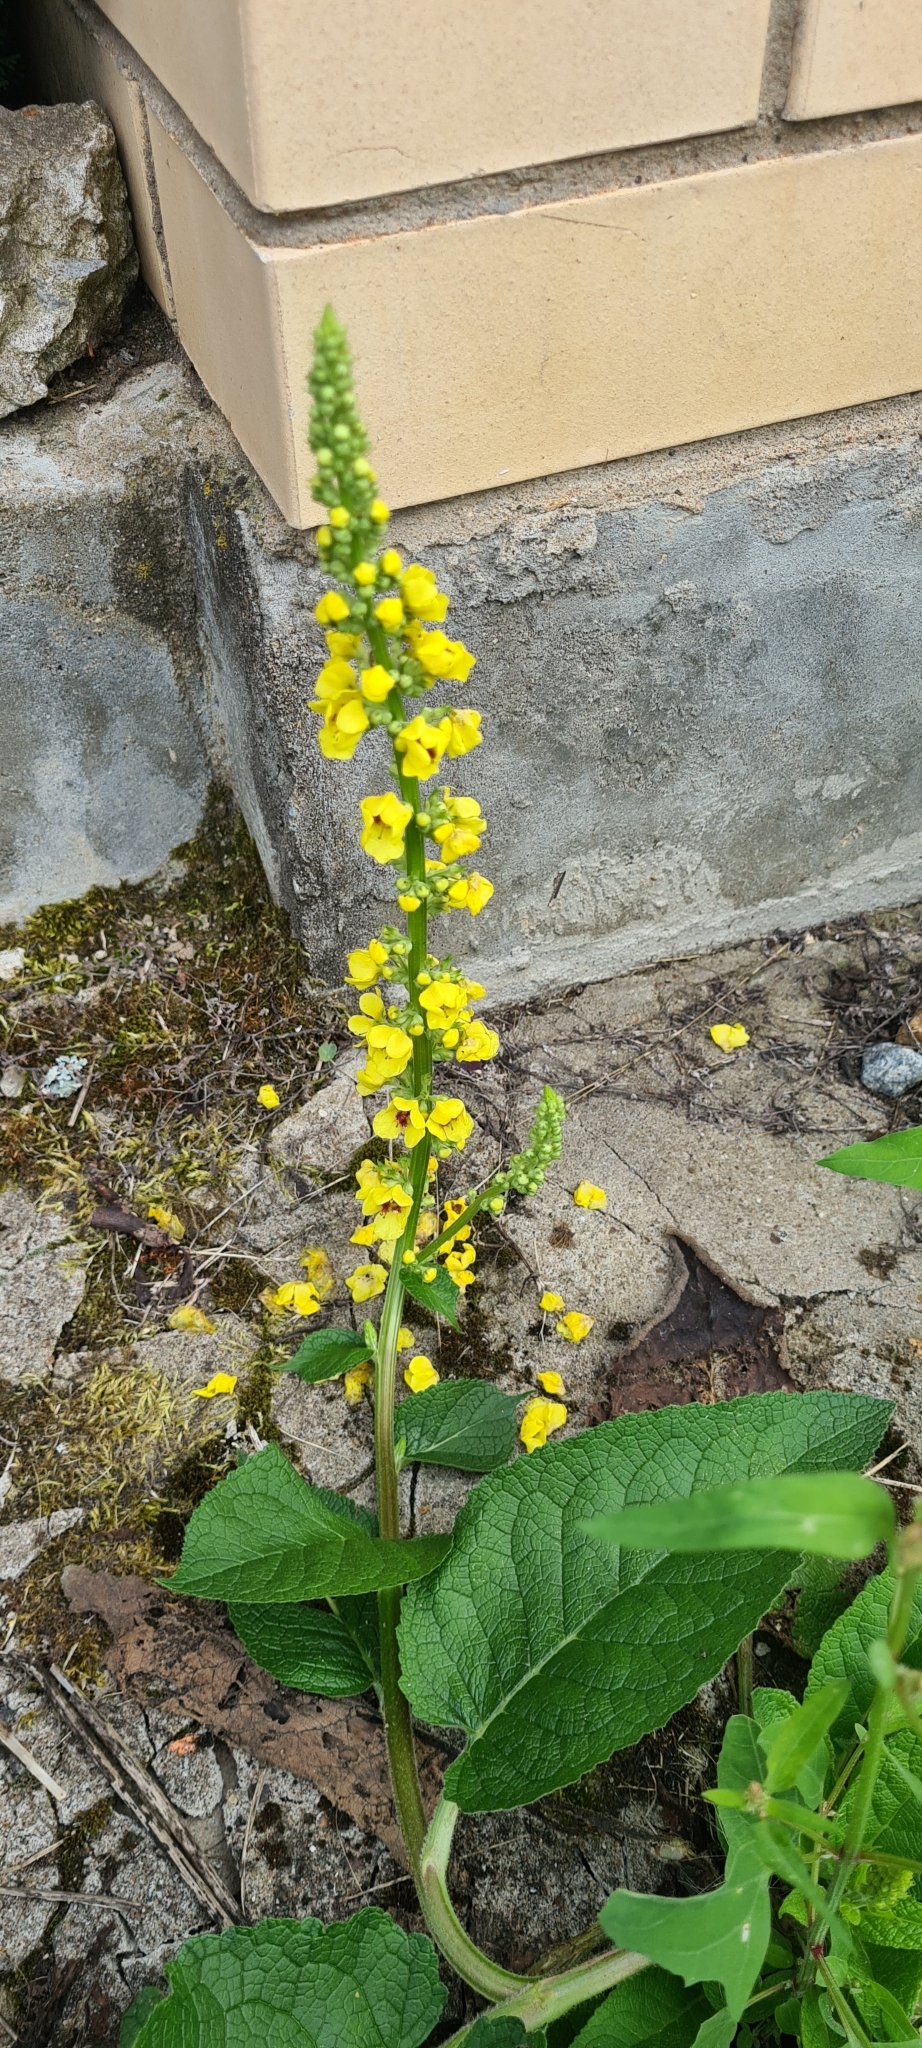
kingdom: Plantae
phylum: Tracheophyta
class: Magnoliopsida
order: Lamiales
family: Scrophulariaceae
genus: Verbascum
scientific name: Verbascum nigrum
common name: Dark mullein
